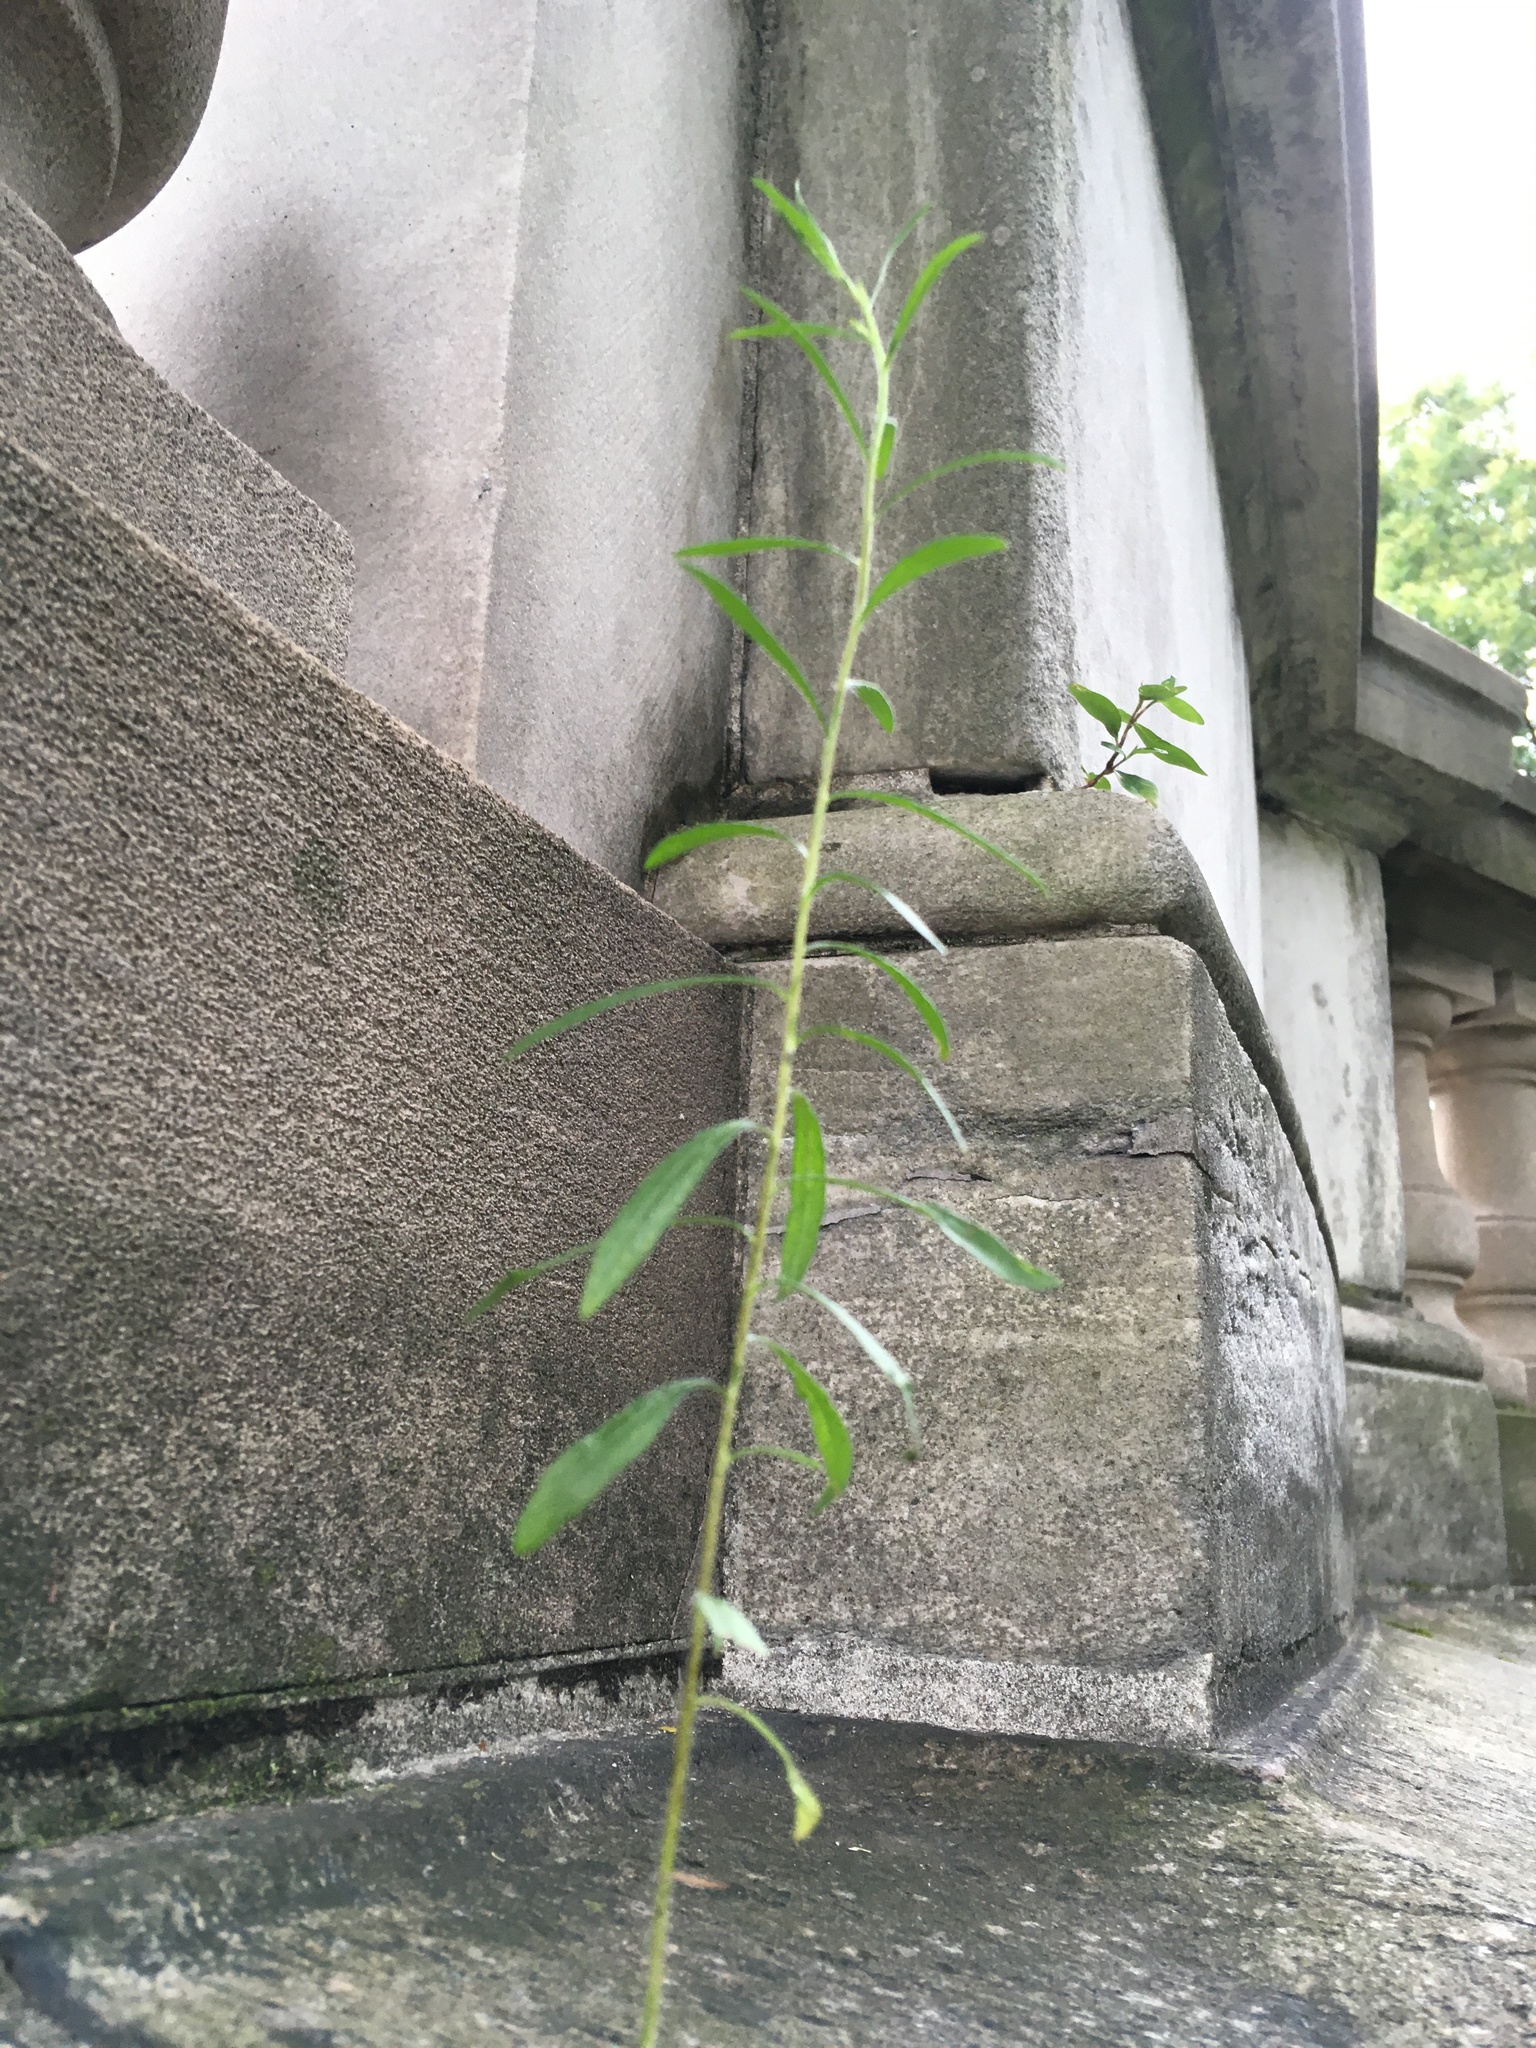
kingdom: Plantae
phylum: Tracheophyta
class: Magnoliopsida
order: Asterales
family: Asteraceae
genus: Erigeron
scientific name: Erigeron canadensis
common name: Canadian fleabane
